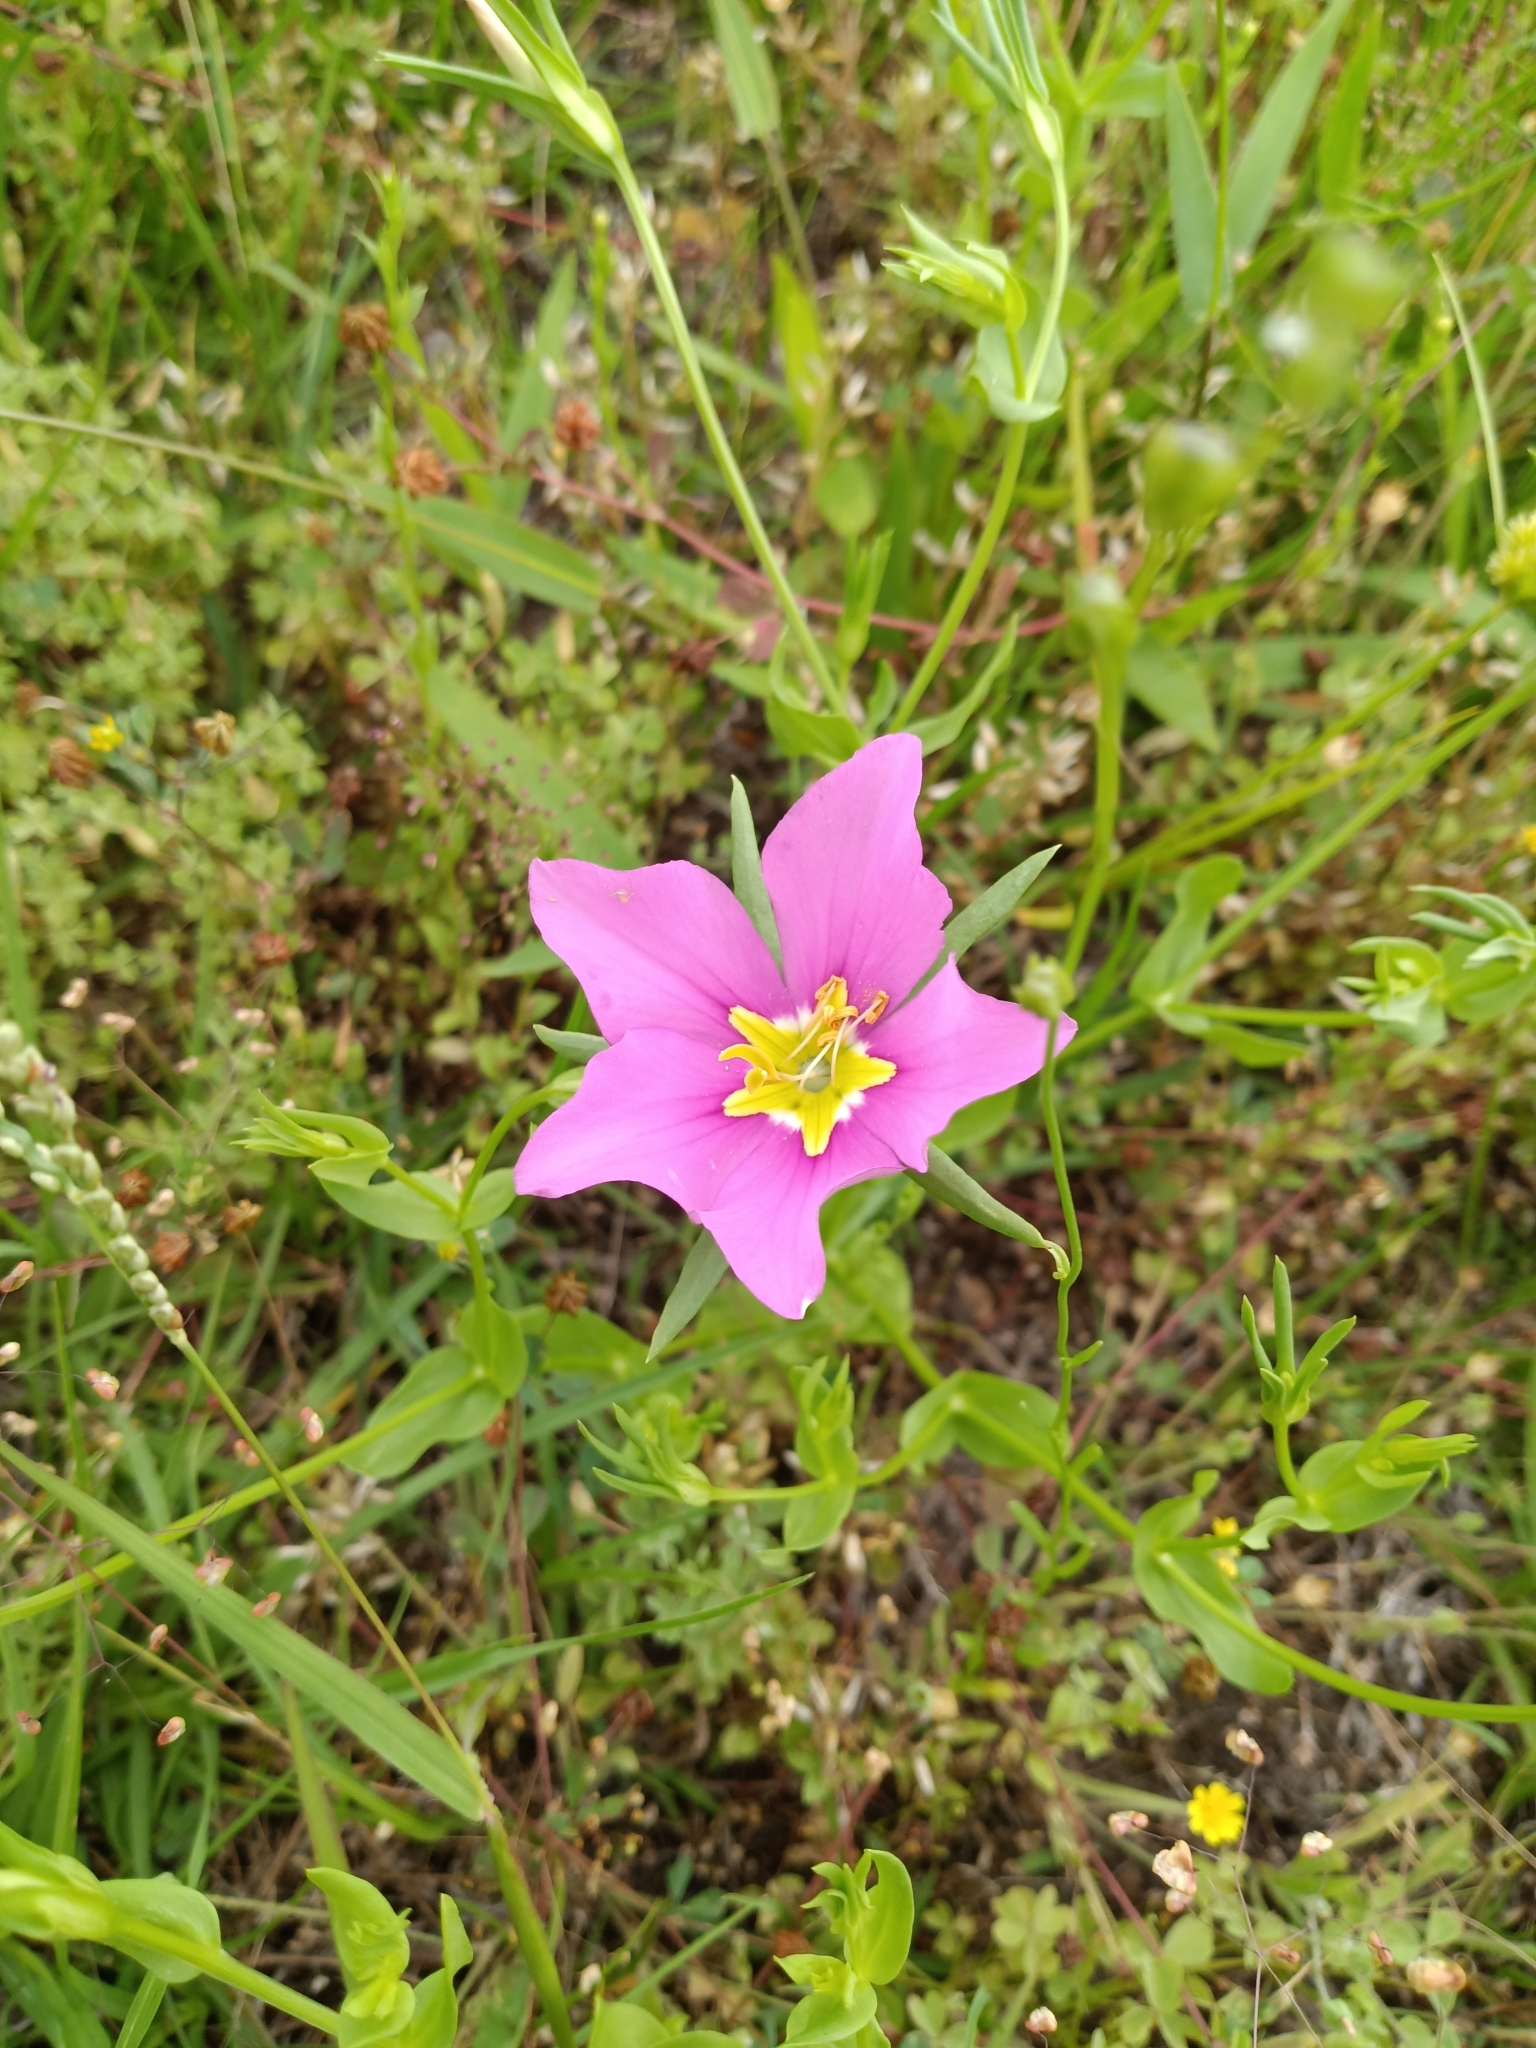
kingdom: Plantae
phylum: Tracheophyta
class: Magnoliopsida
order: Gentianales
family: Gentianaceae
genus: Sabatia
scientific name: Sabatia campestris
